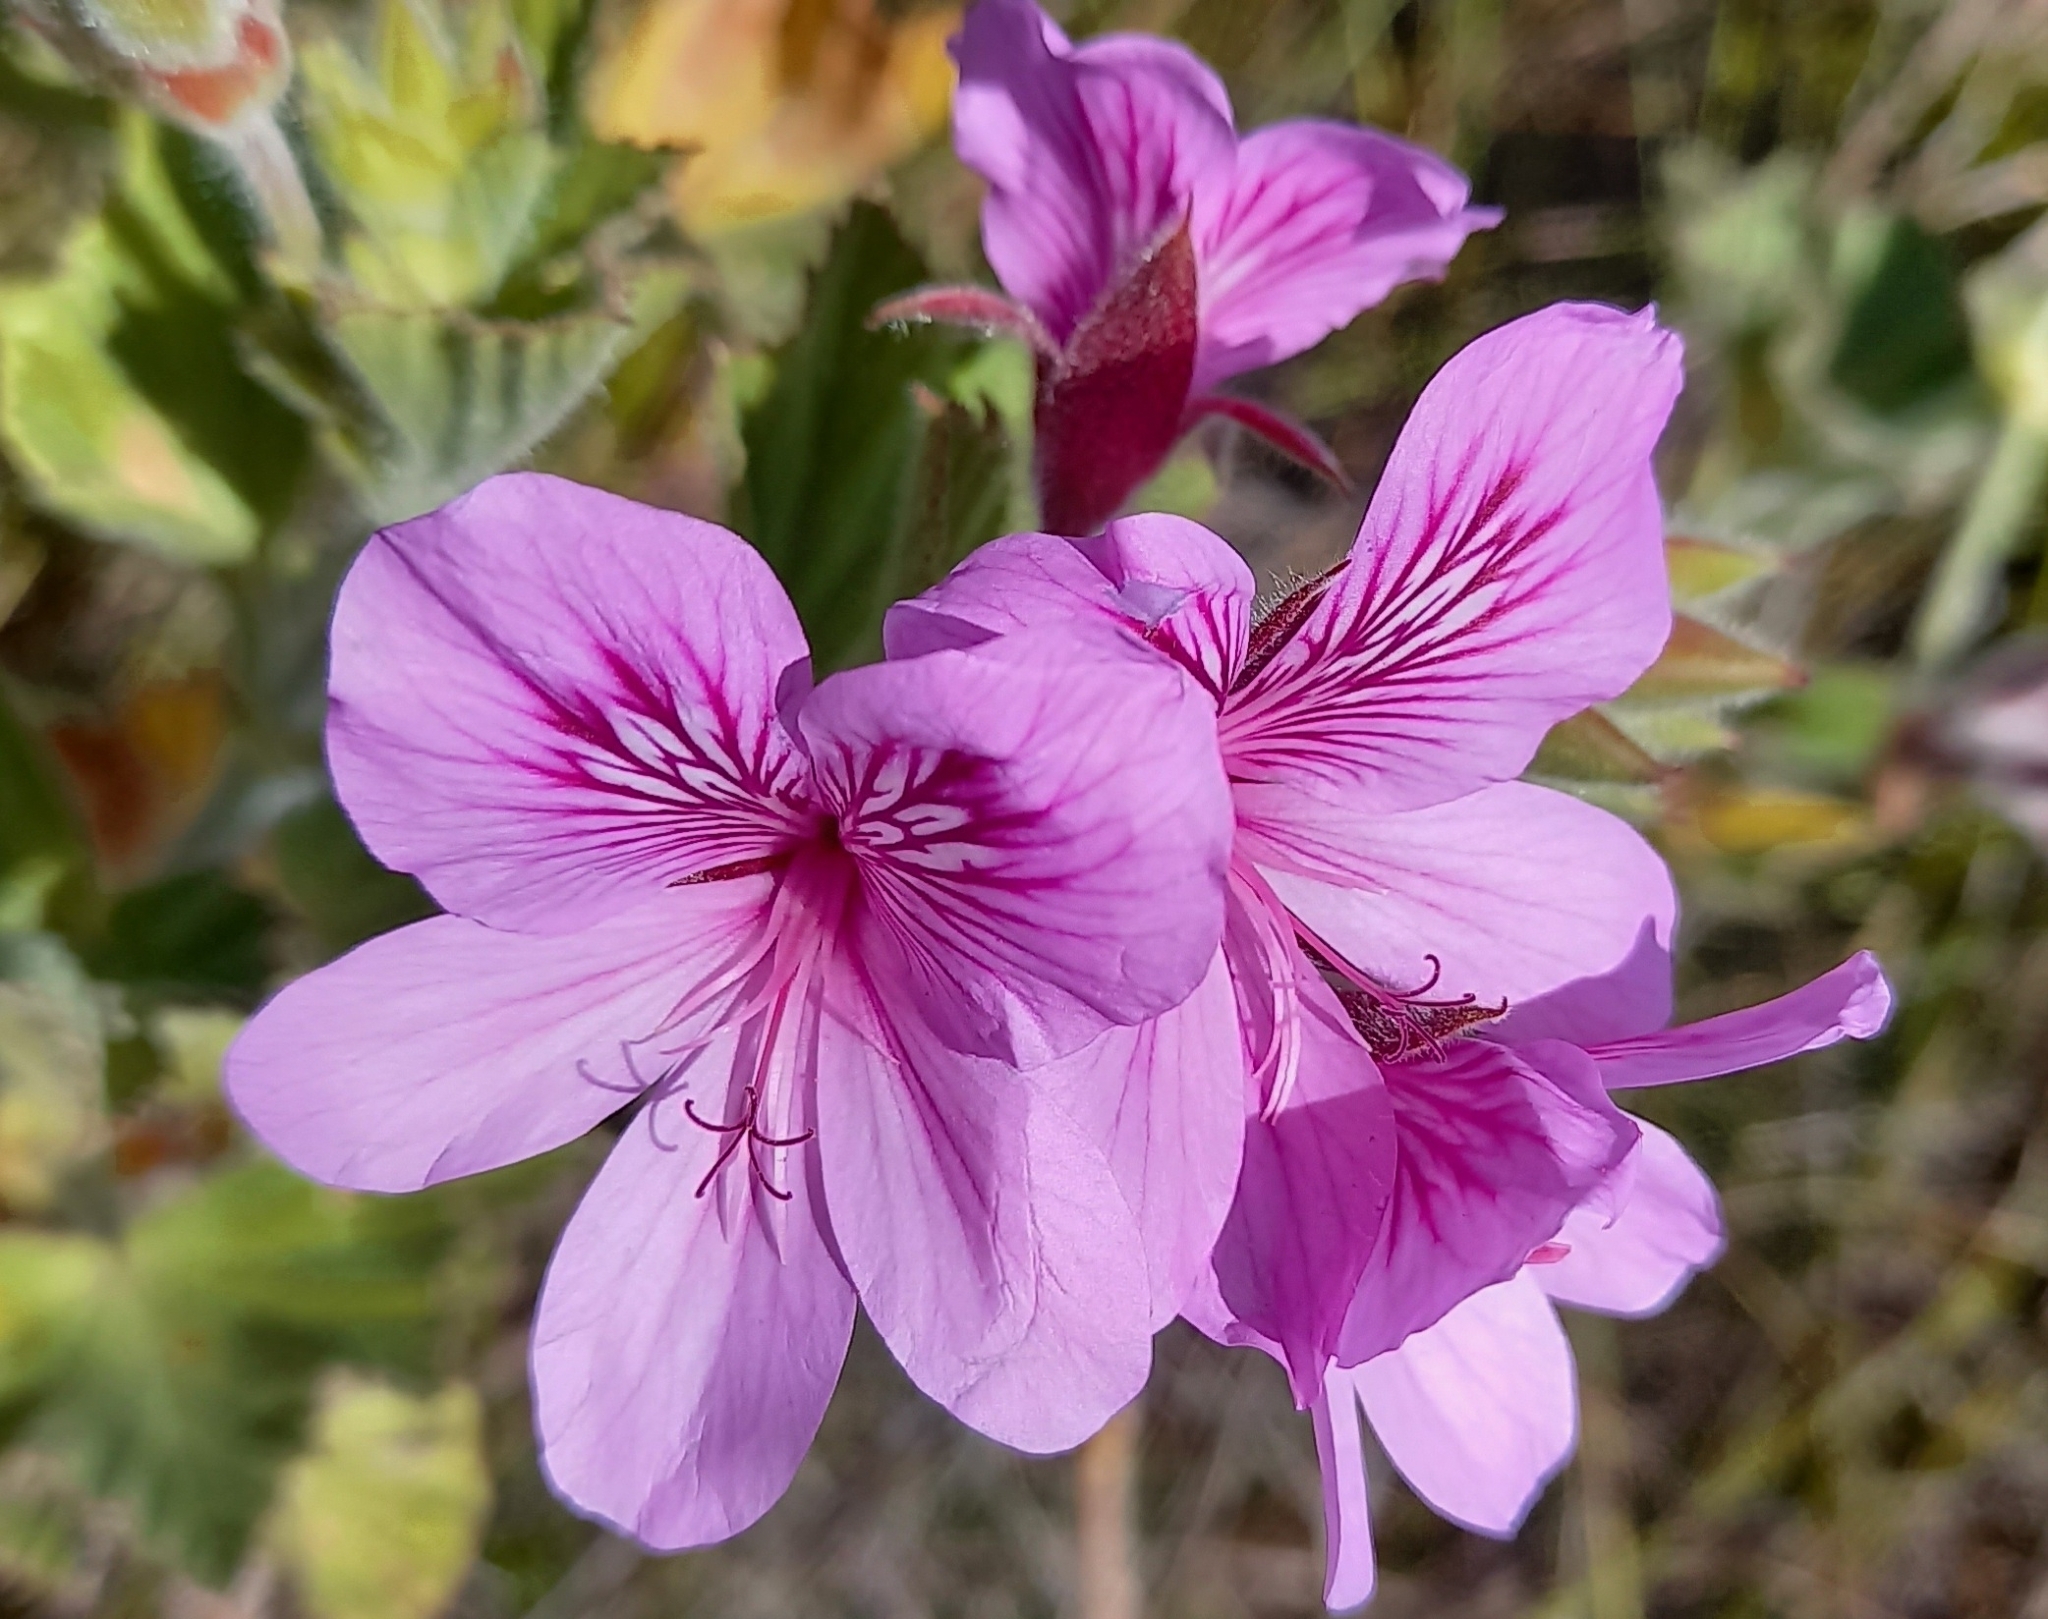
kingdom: Plantae
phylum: Tracheophyta
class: Magnoliopsida
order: Geraniales
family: Geraniaceae
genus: Pelargonium
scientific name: Pelargonium cucullatum
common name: Tree pelargonium
